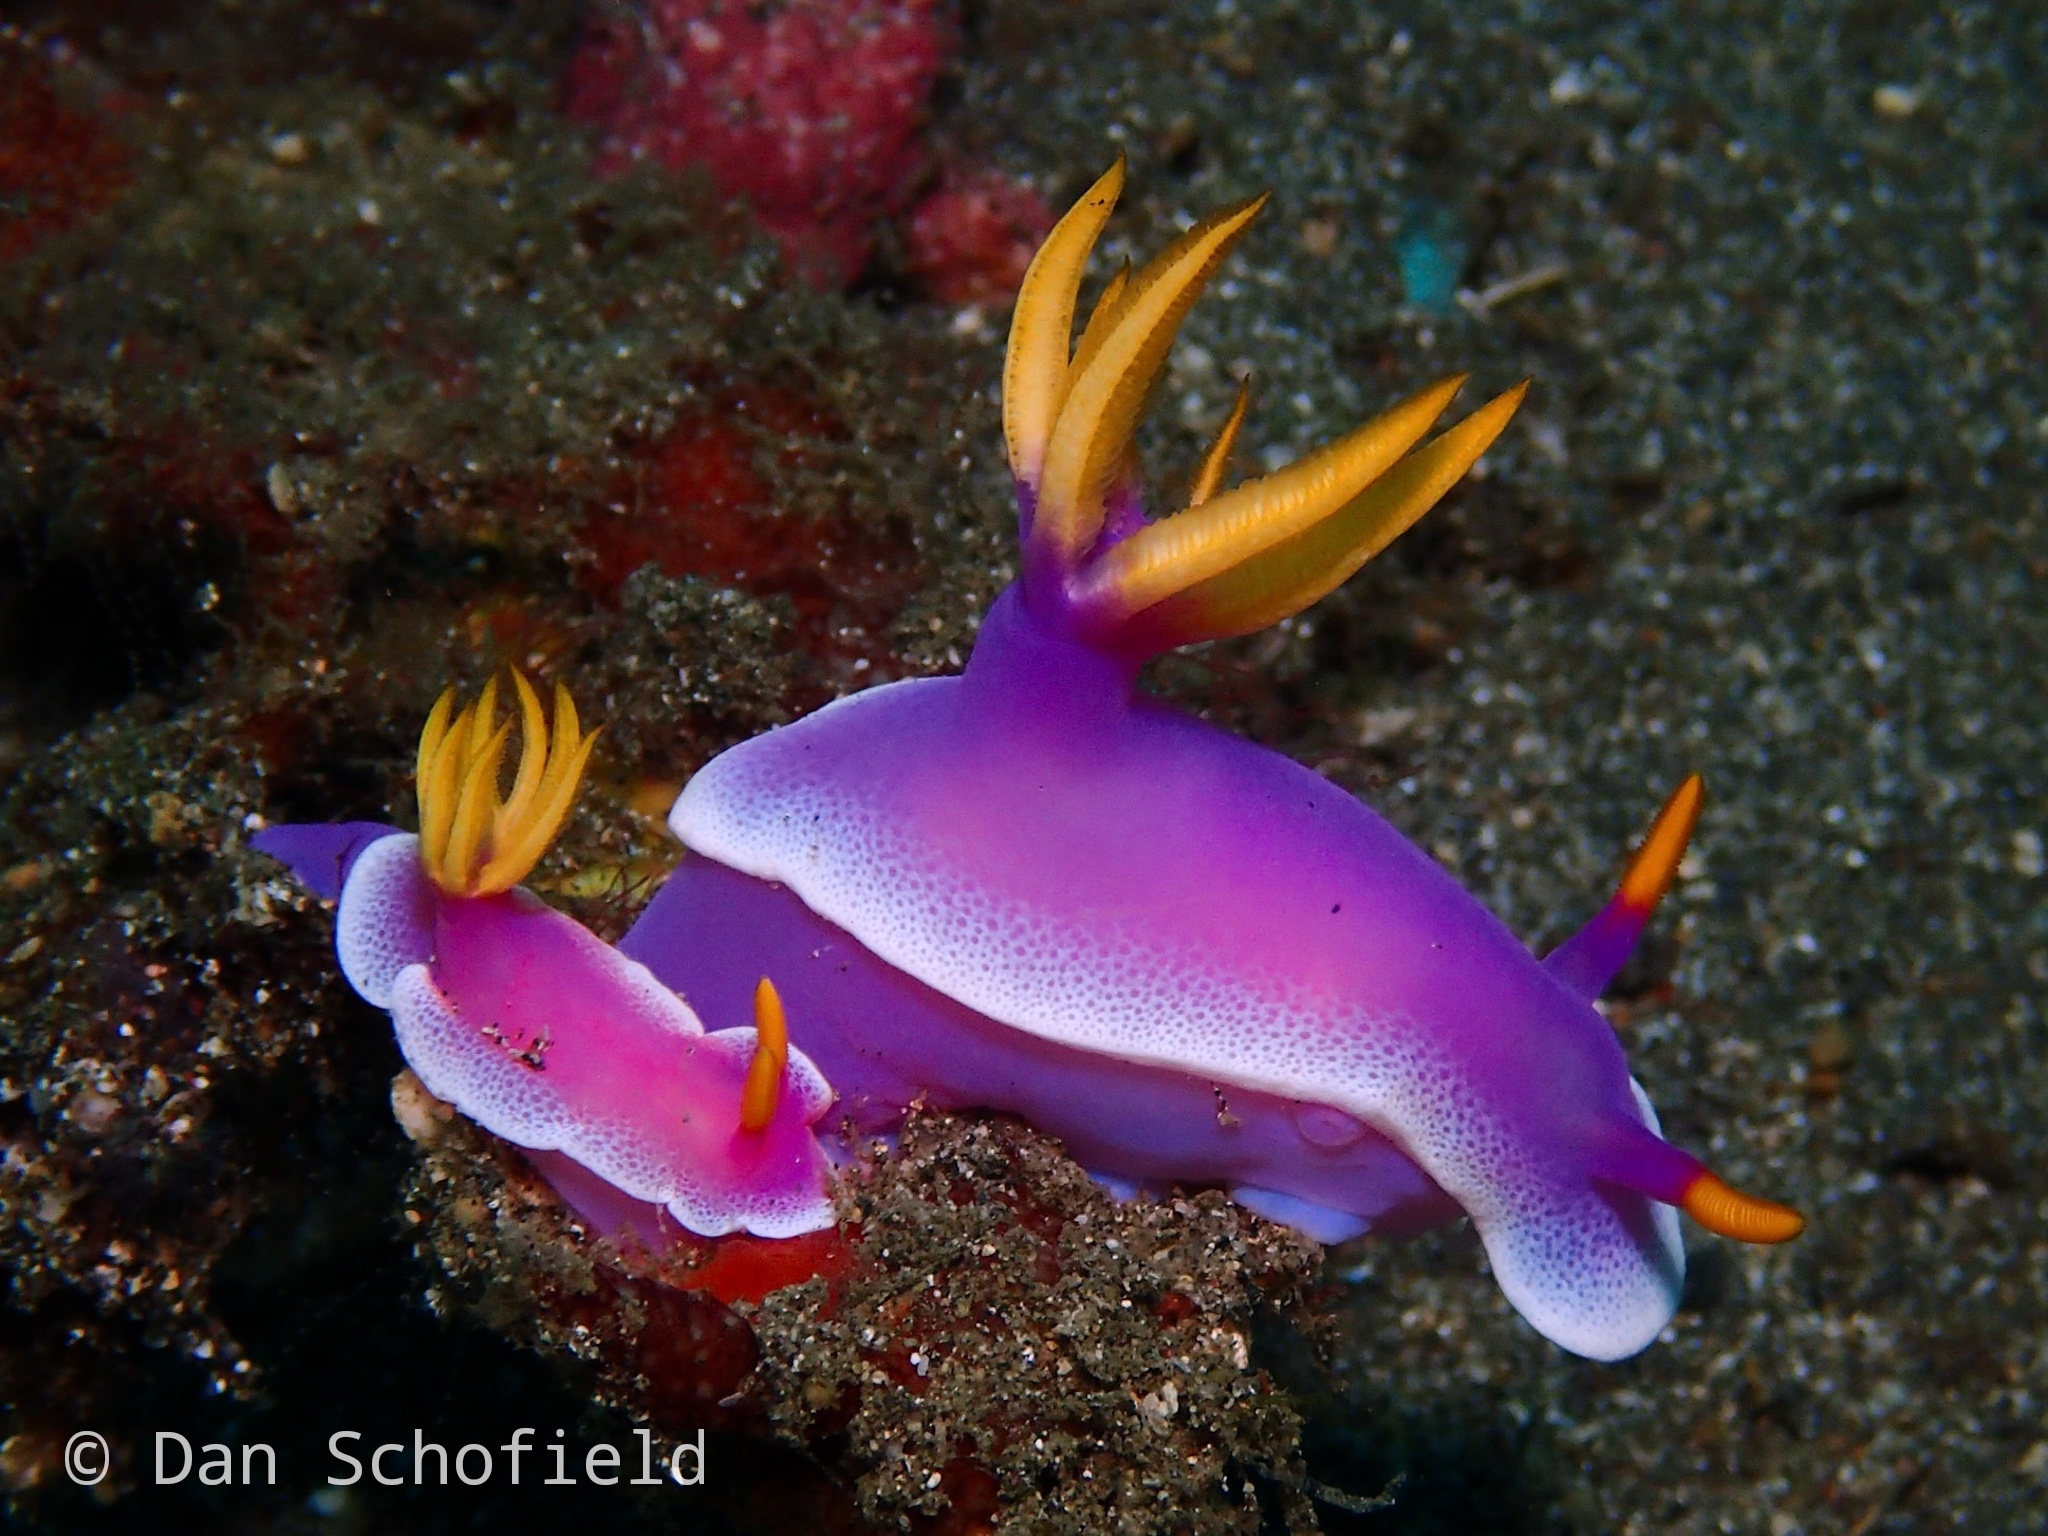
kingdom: Animalia
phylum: Mollusca
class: Gastropoda
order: Nudibranchia
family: Chromodorididae
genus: Hypselodoris
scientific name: Hypselodoris apolegma
